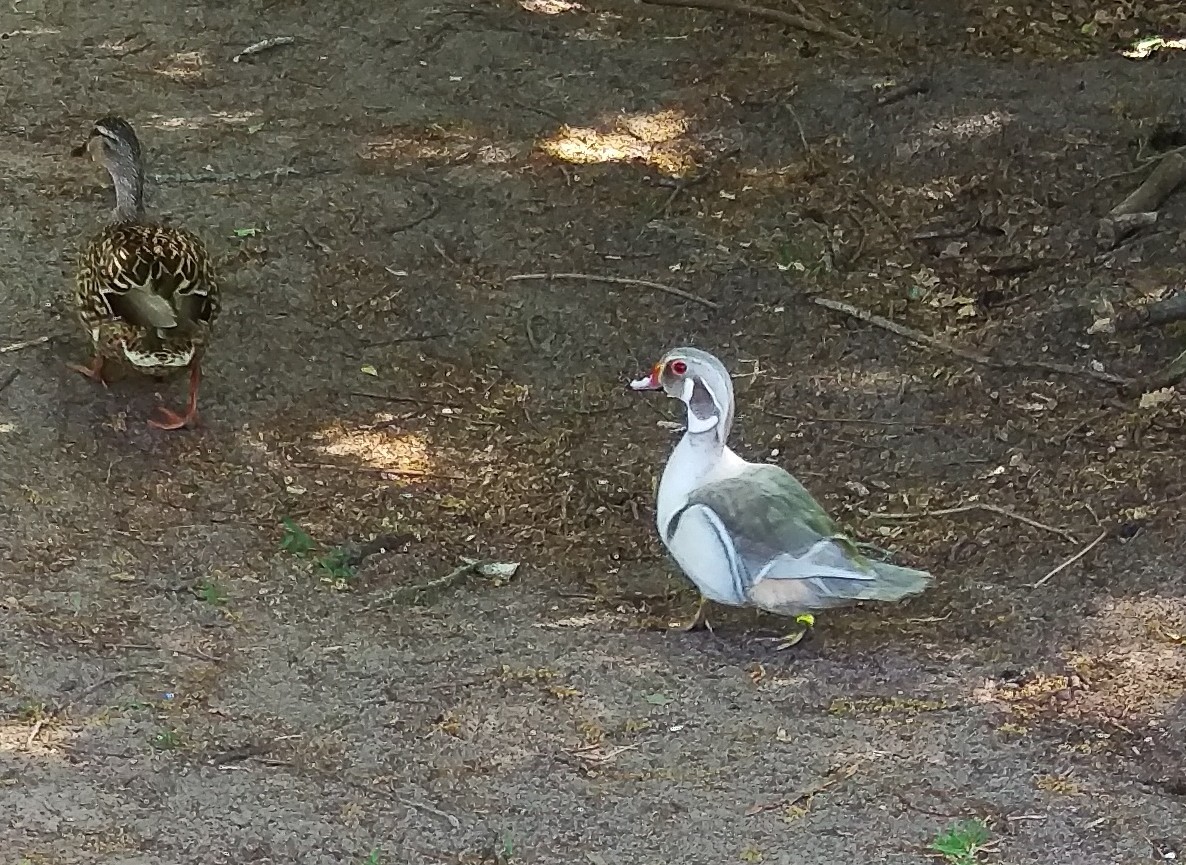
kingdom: Animalia
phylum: Chordata
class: Aves
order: Anseriformes
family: Anatidae
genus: Aix
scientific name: Aix sponsa
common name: Wood duck
